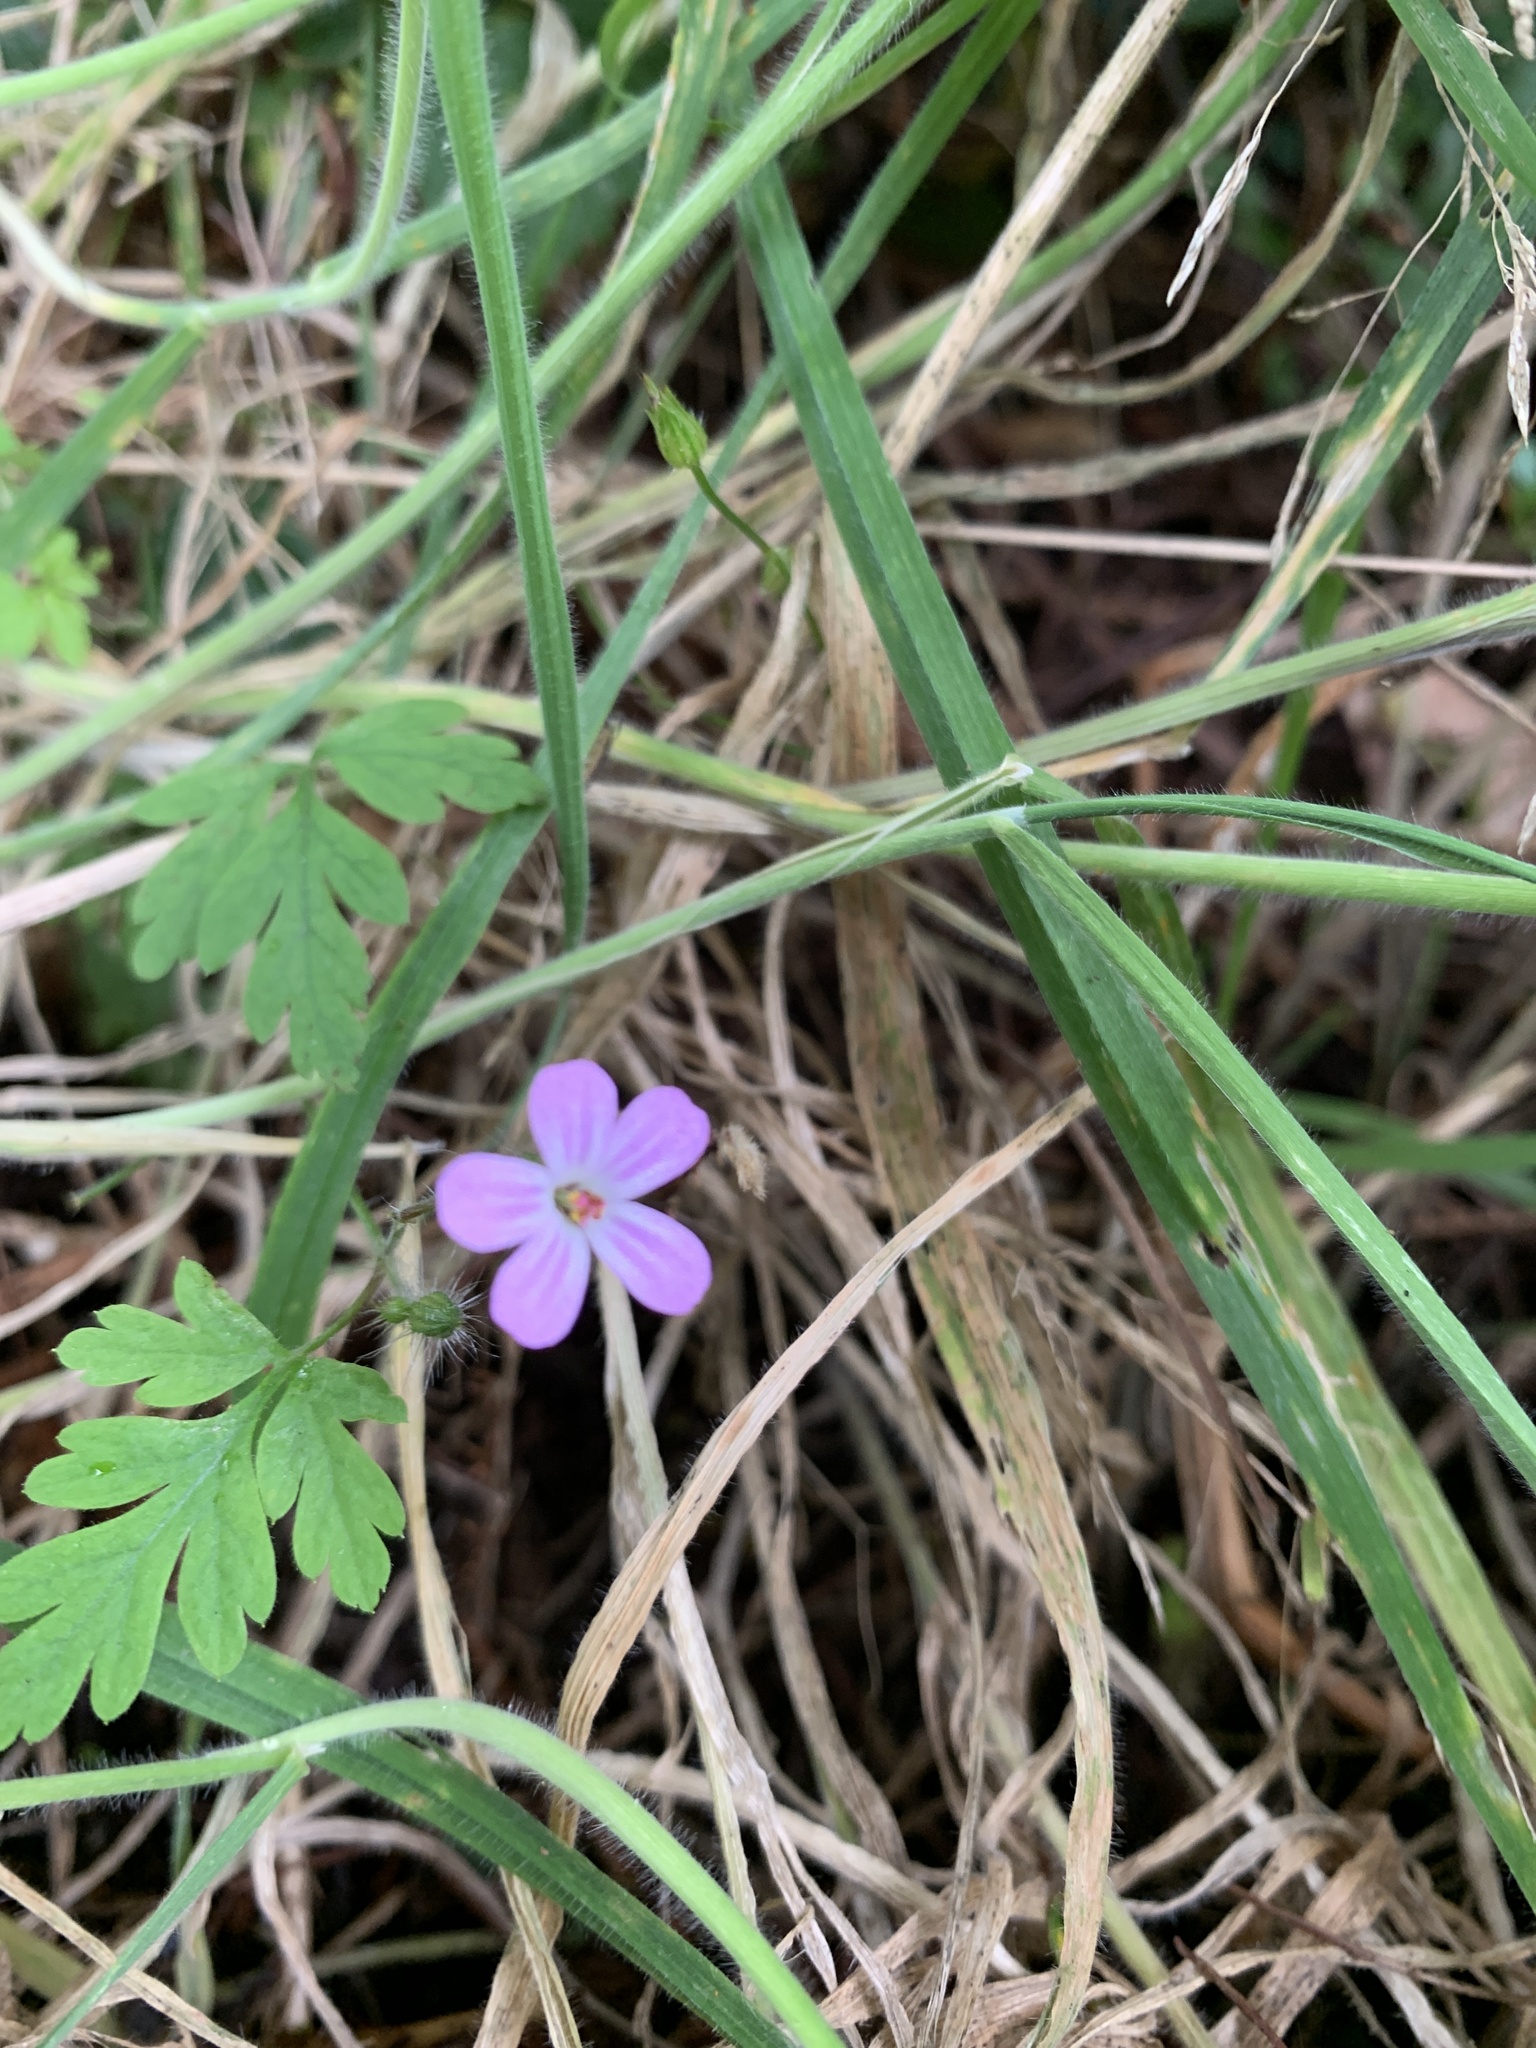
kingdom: Plantae
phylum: Tracheophyta
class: Magnoliopsida
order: Geraniales
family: Geraniaceae
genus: Geranium
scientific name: Geranium robertianum
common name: Herb-robert
